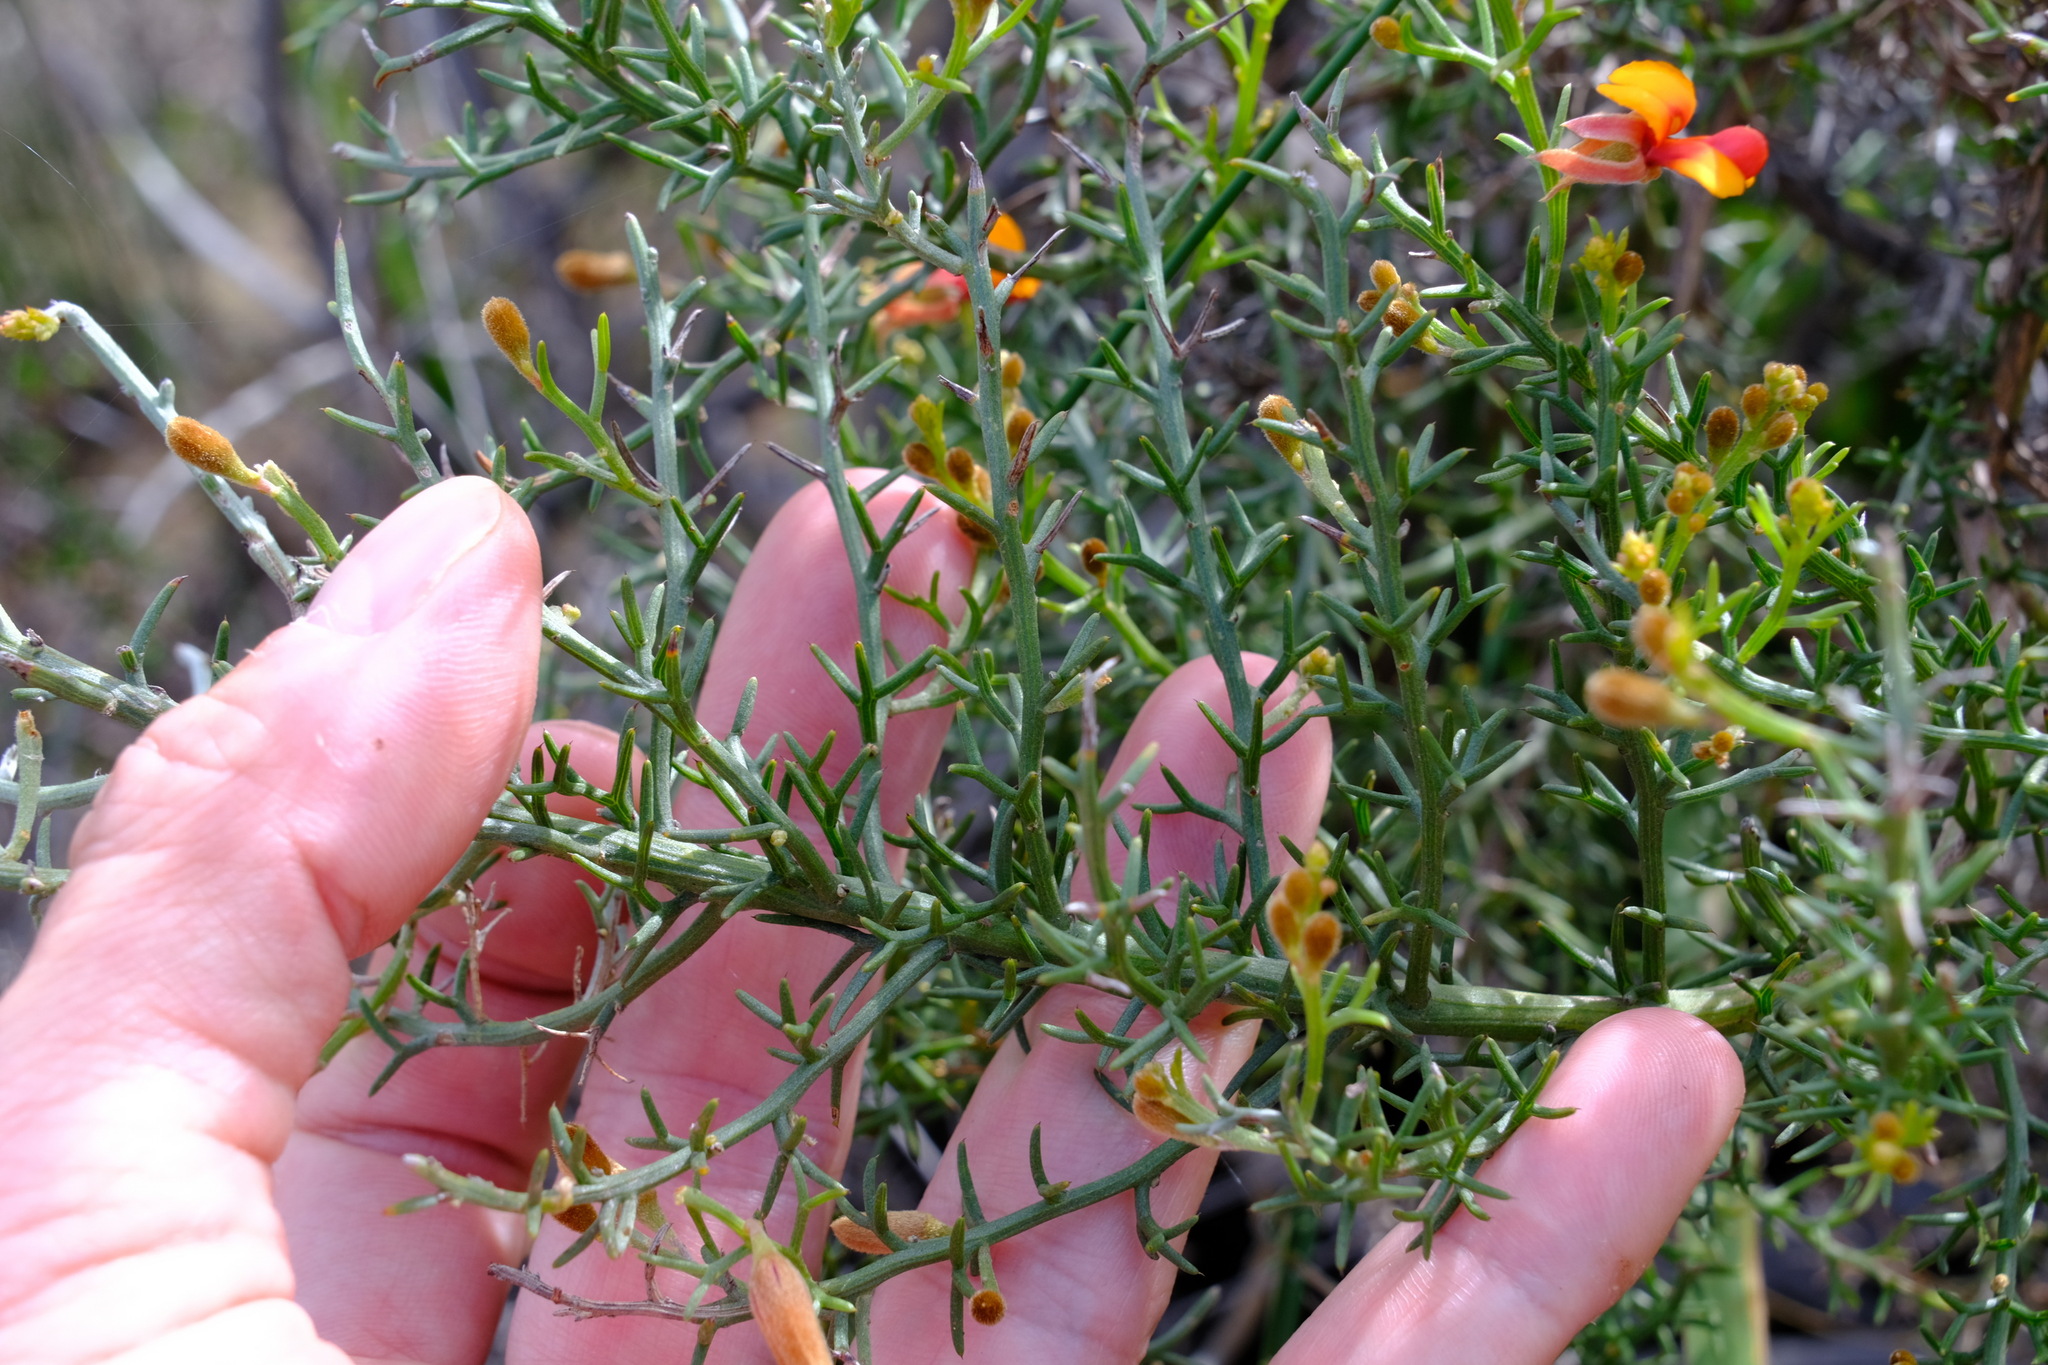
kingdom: Plantae
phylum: Tracheophyta
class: Magnoliopsida
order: Fabales
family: Fabaceae
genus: Jacksonia
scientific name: Jacksonia hakeoides
